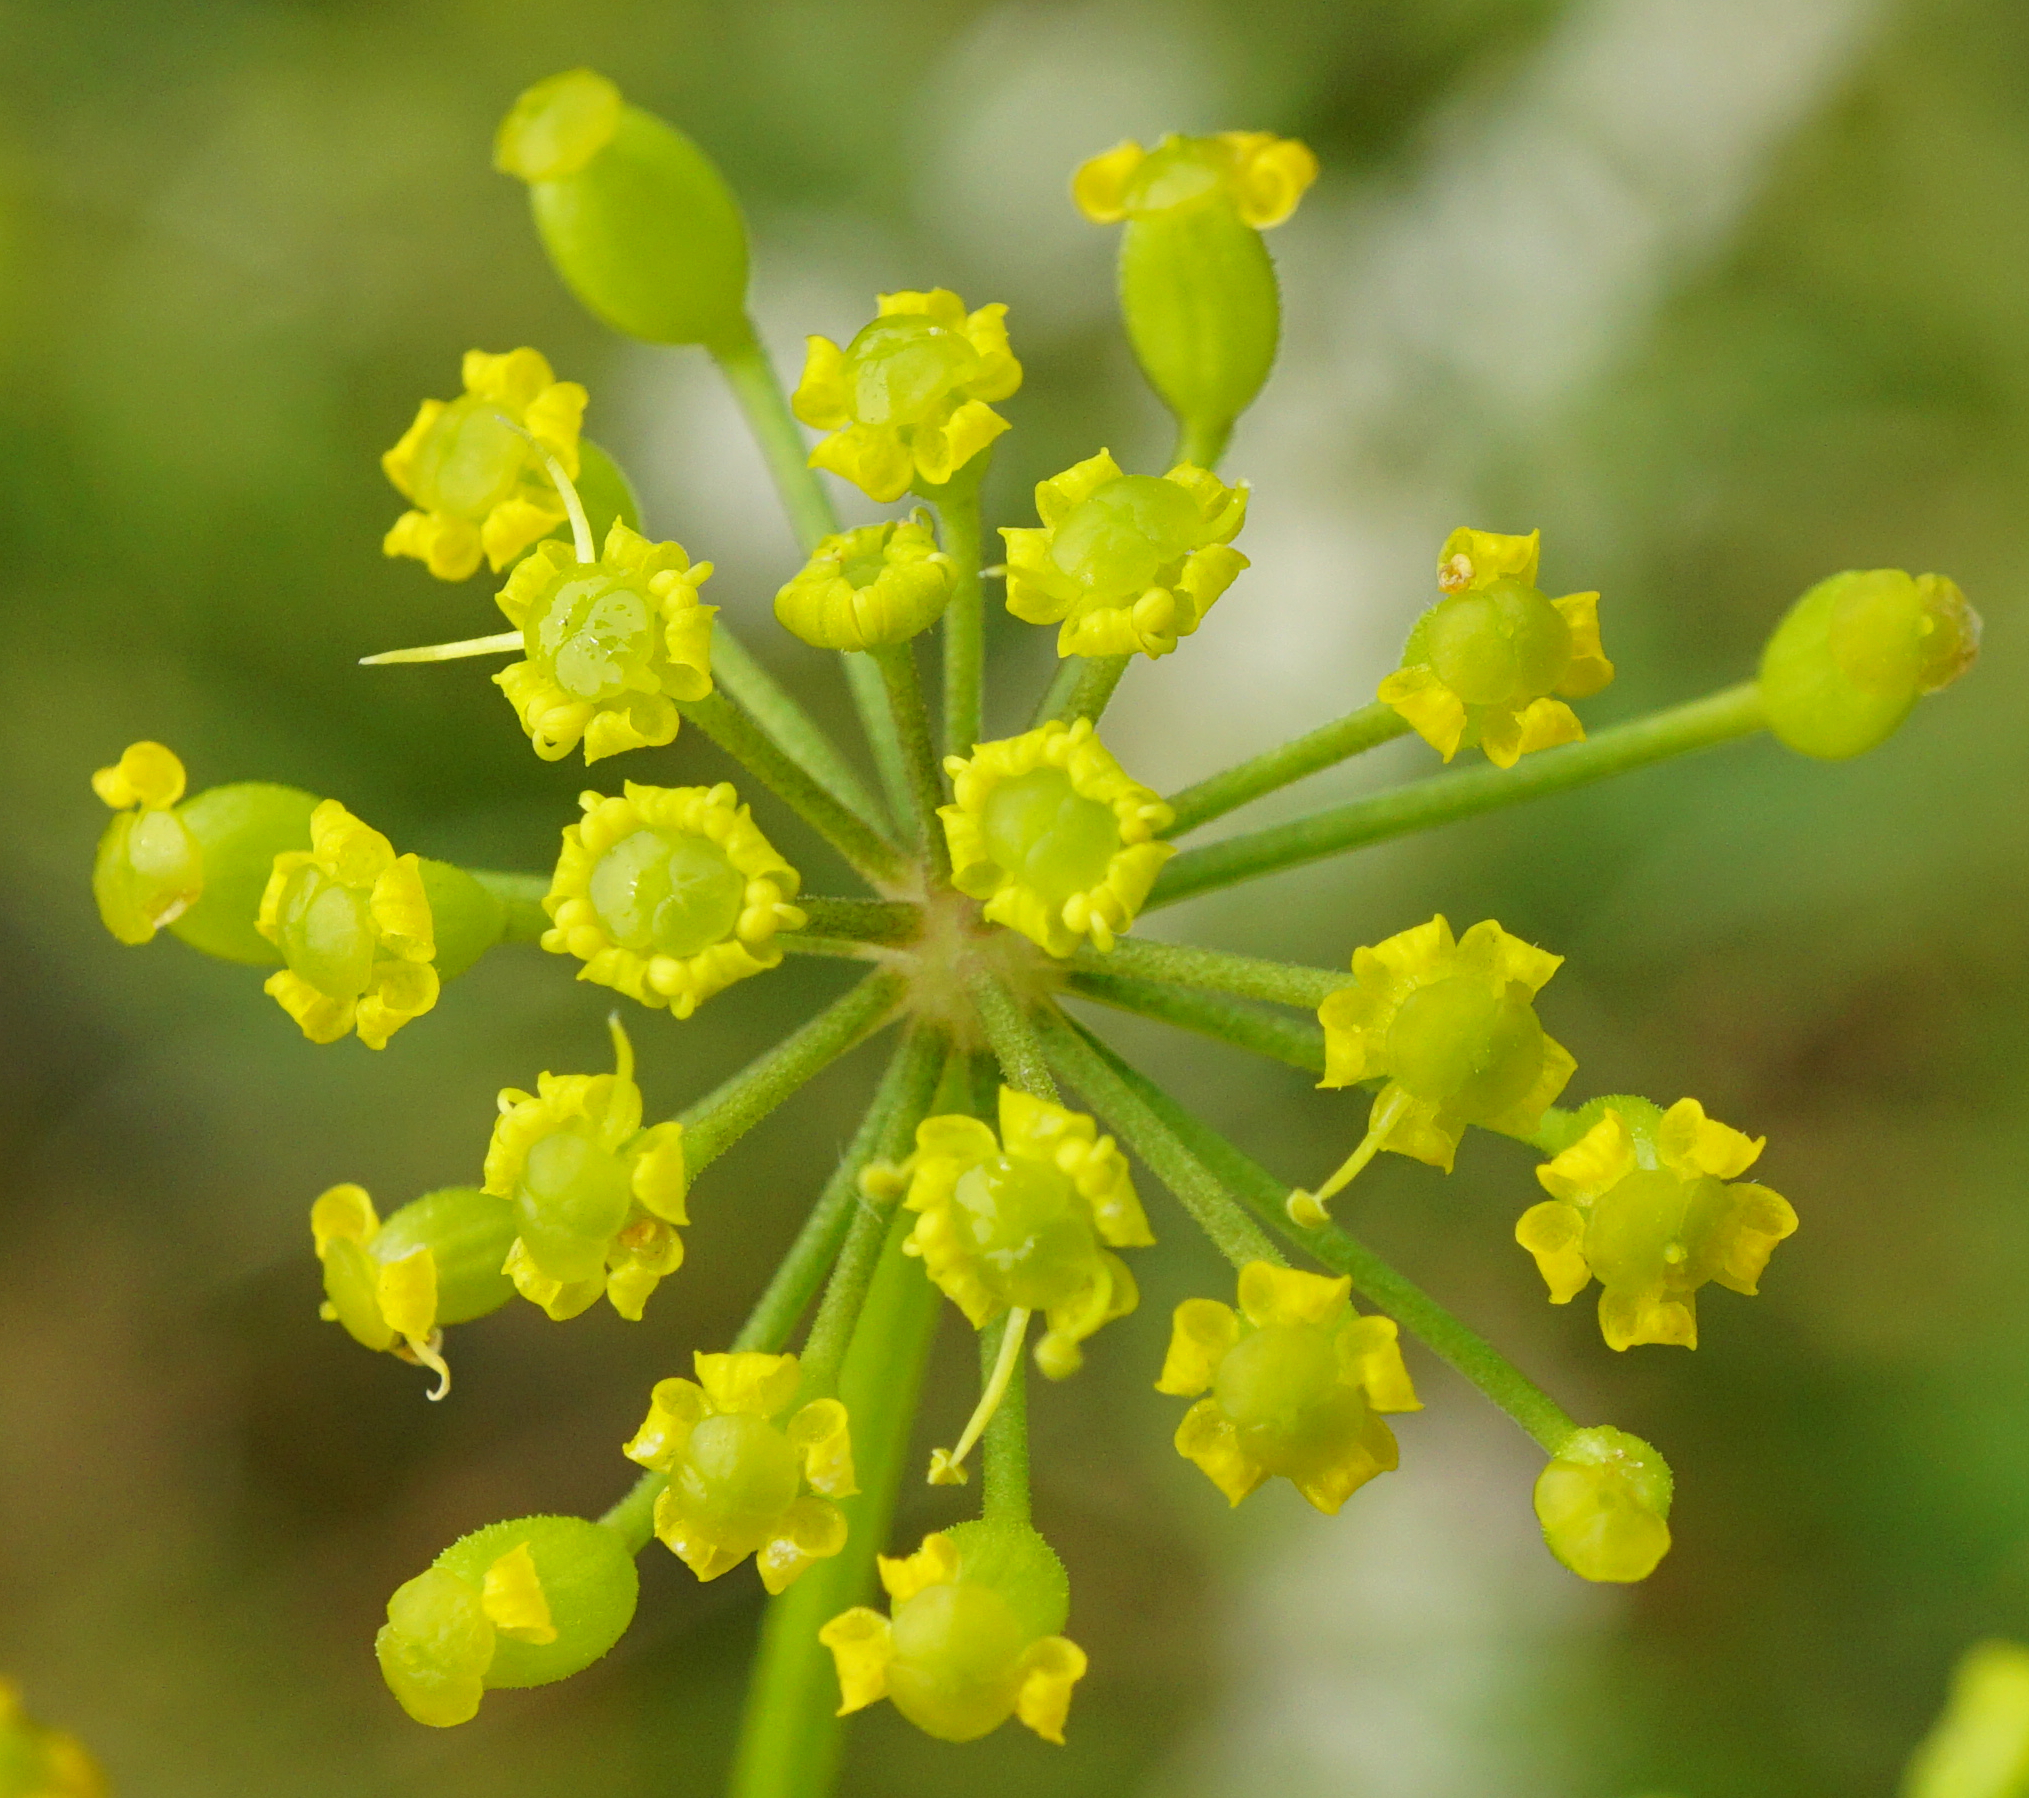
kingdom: Plantae
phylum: Tracheophyta
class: Magnoliopsida
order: Apiales
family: Apiaceae
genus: Pastinaca
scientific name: Pastinaca sativa
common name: Wild parsnip
